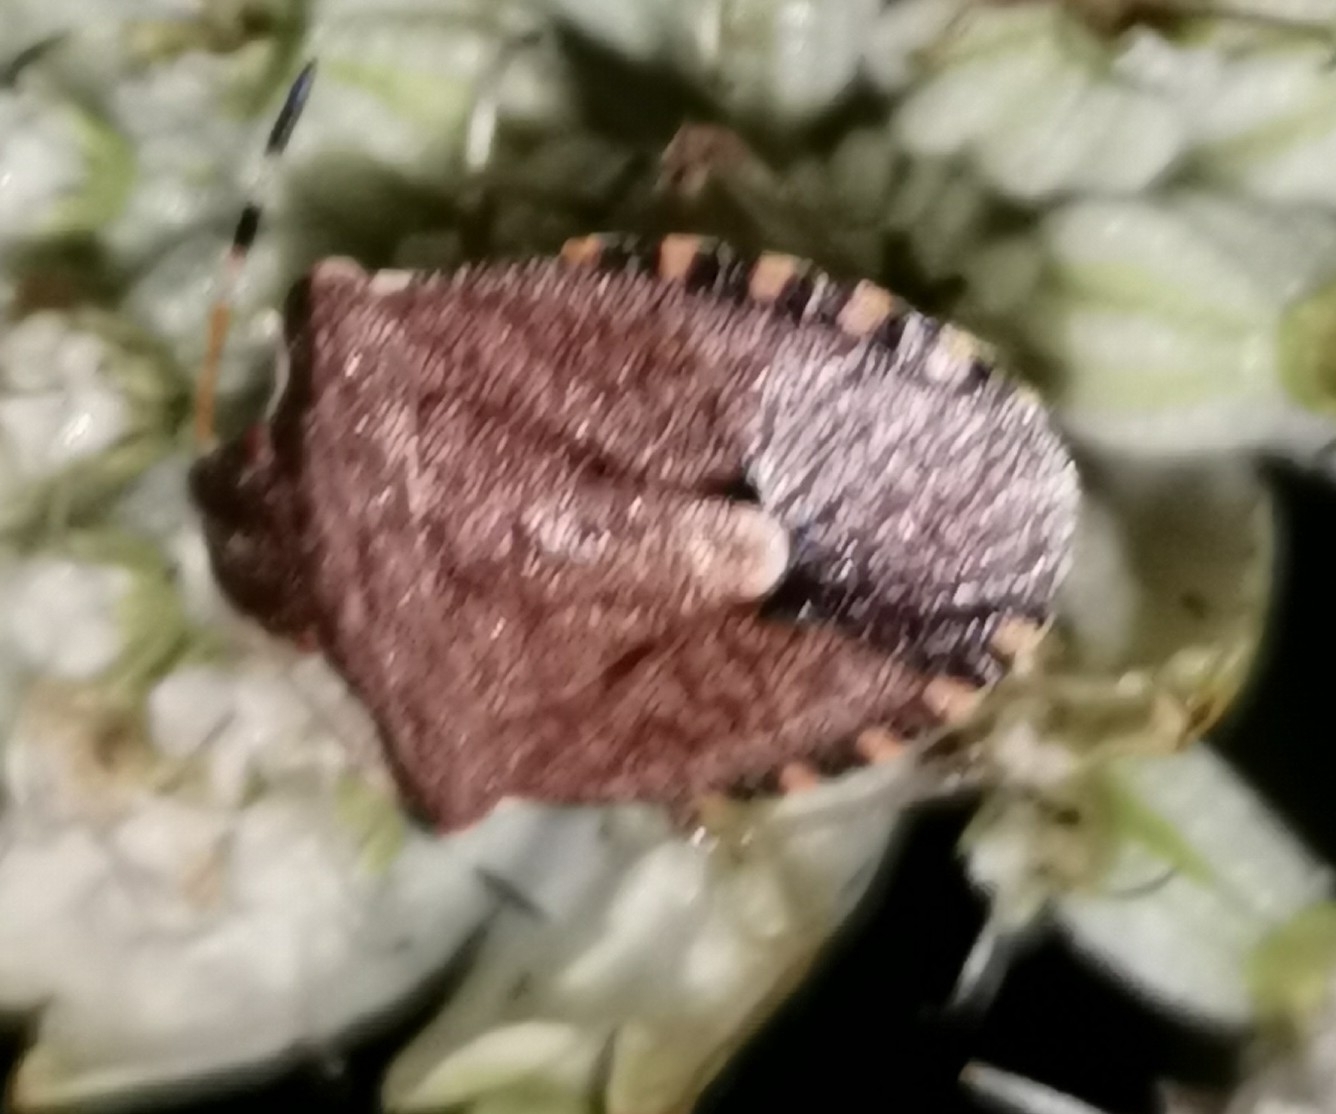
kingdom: Animalia
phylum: Arthropoda
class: Insecta
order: Hemiptera
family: Pentatomidae
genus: Holcostethus
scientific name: Holcostethus strictus
